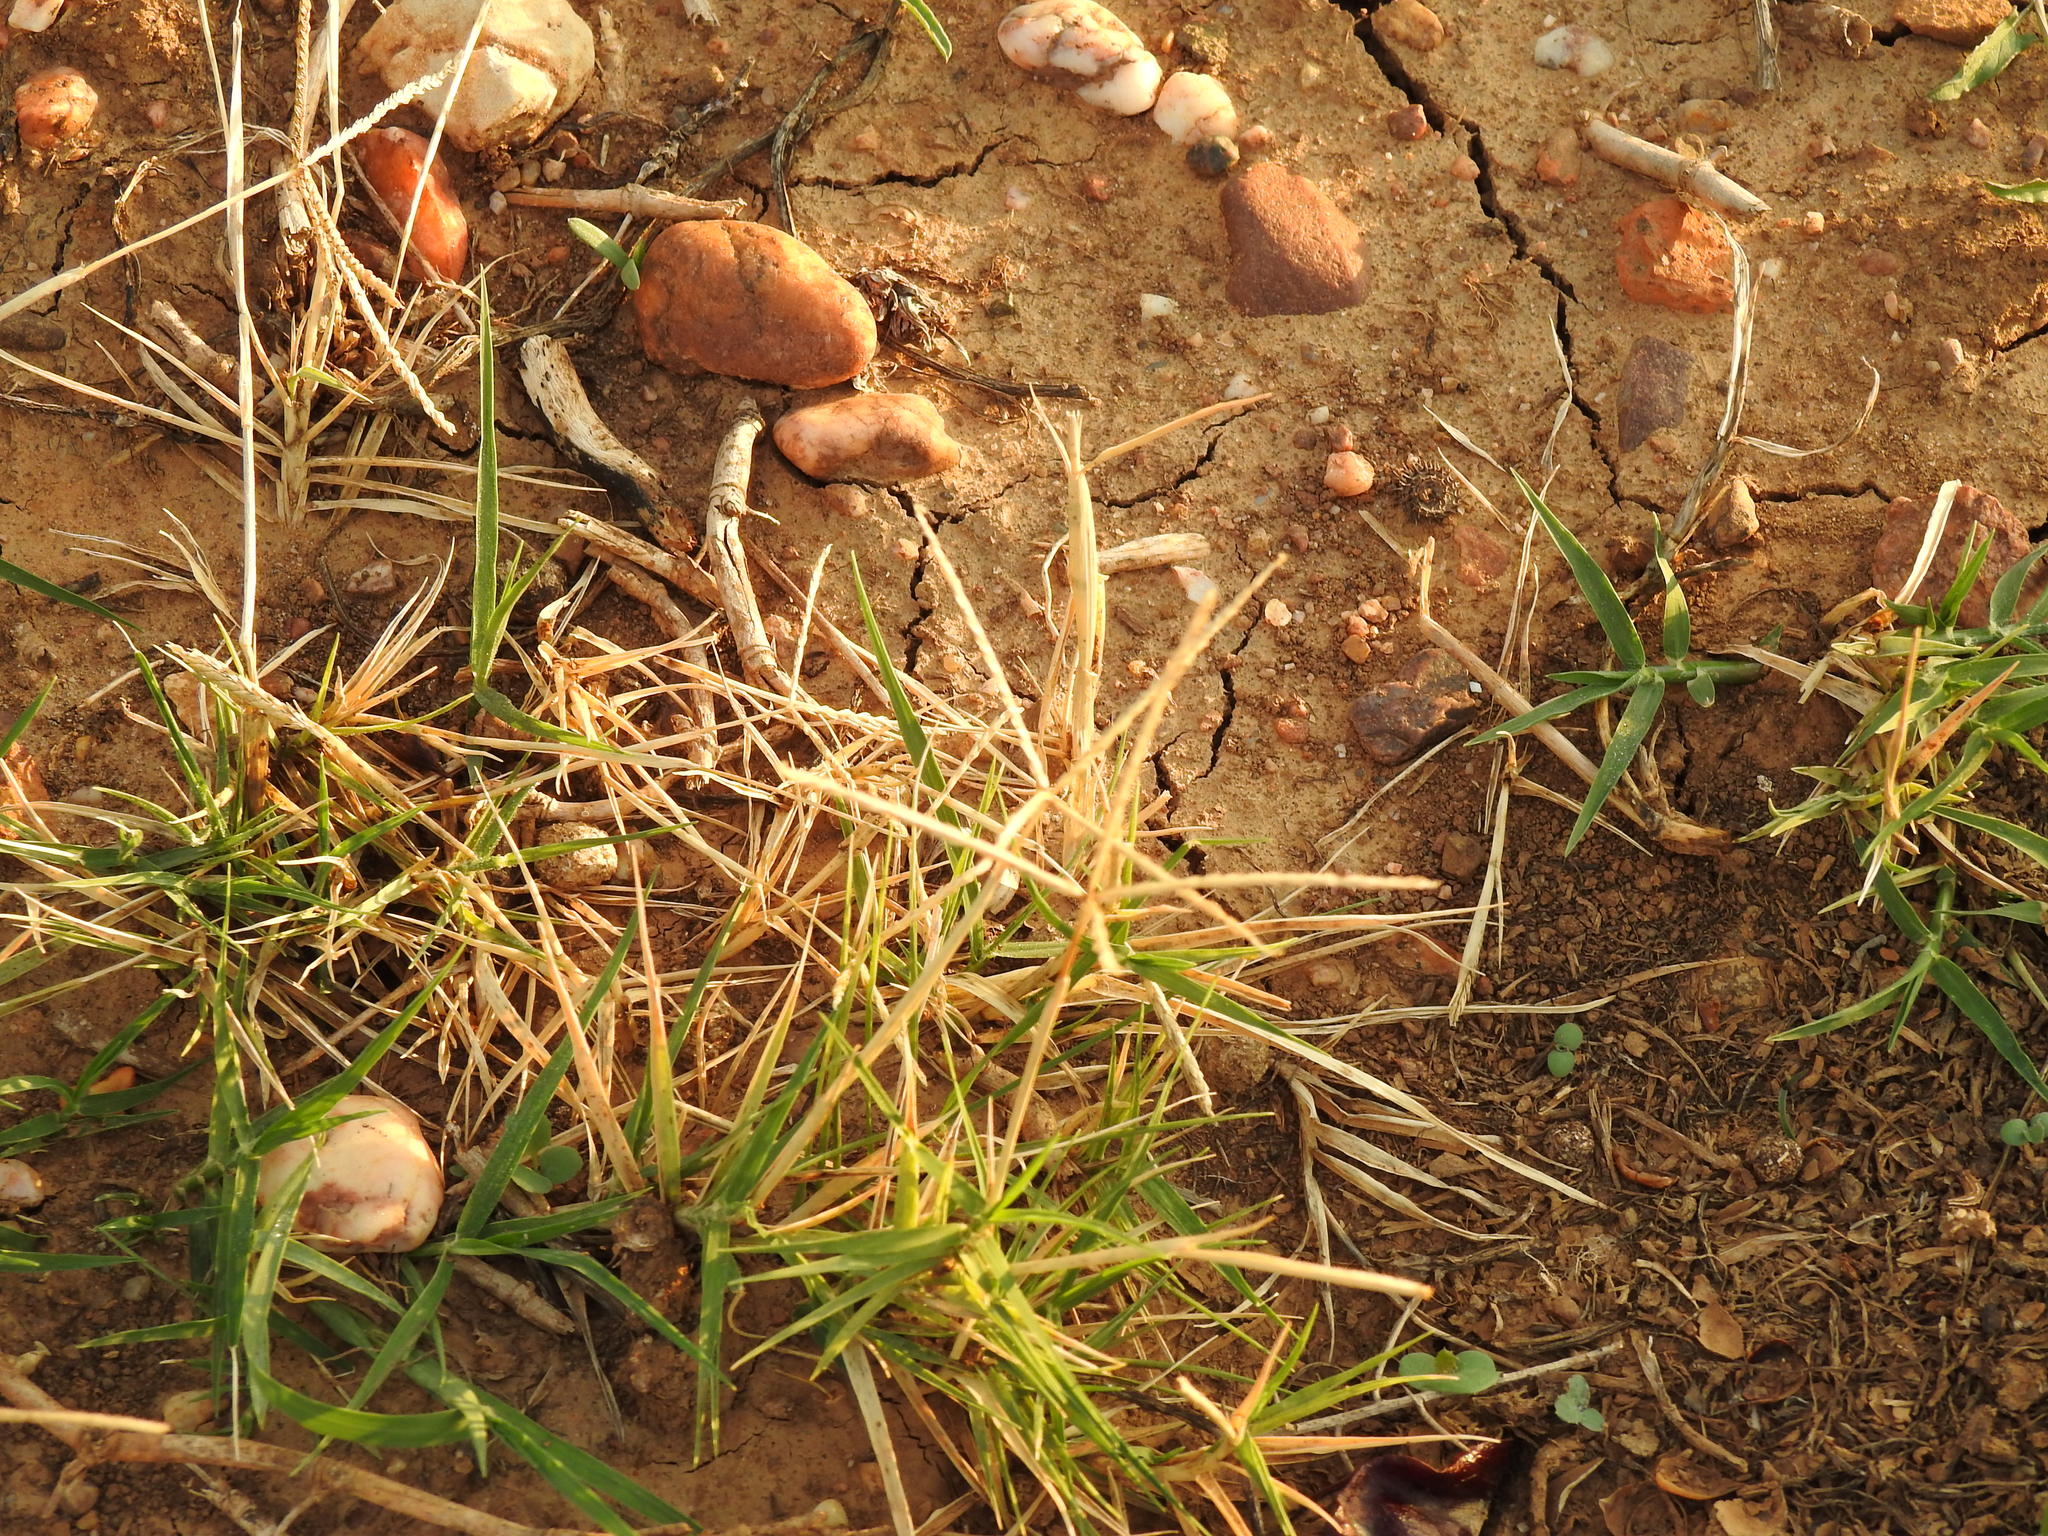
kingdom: Plantae
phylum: Tracheophyta
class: Liliopsida
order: Poales
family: Poaceae
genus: Cynodon
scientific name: Cynodon dactylon
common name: Bermuda grass
